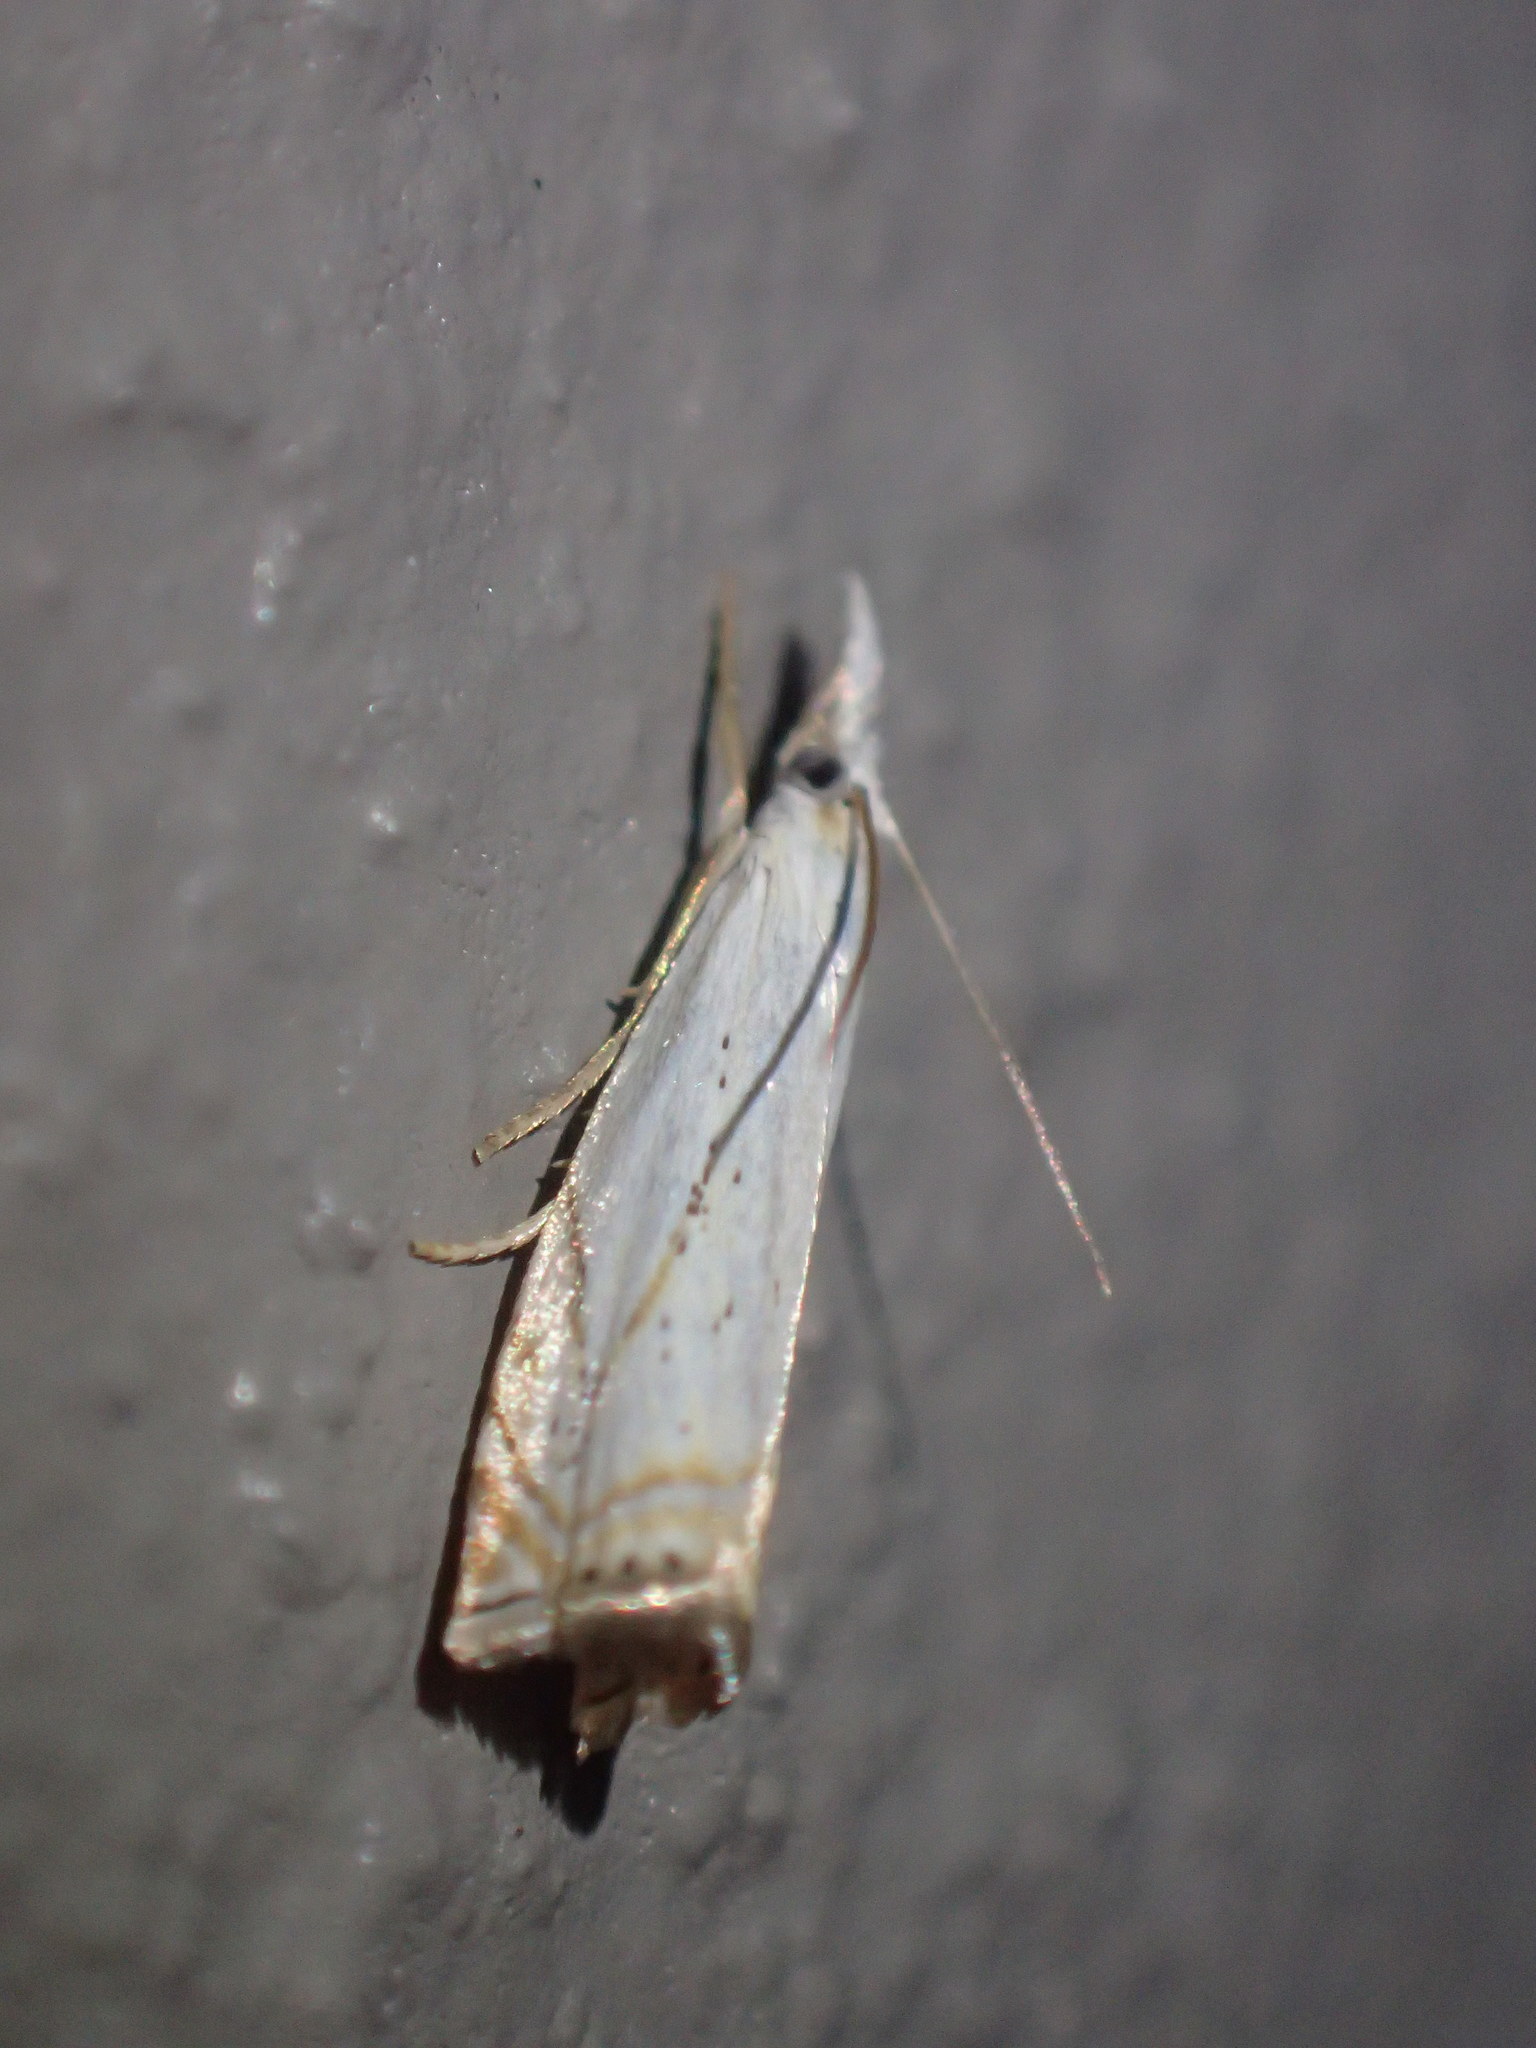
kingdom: Animalia
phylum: Arthropoda
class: Insecta
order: Lepidoptera
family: Crambidae
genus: Crambus
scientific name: Crambus albellus
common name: Small white grass-veneer
